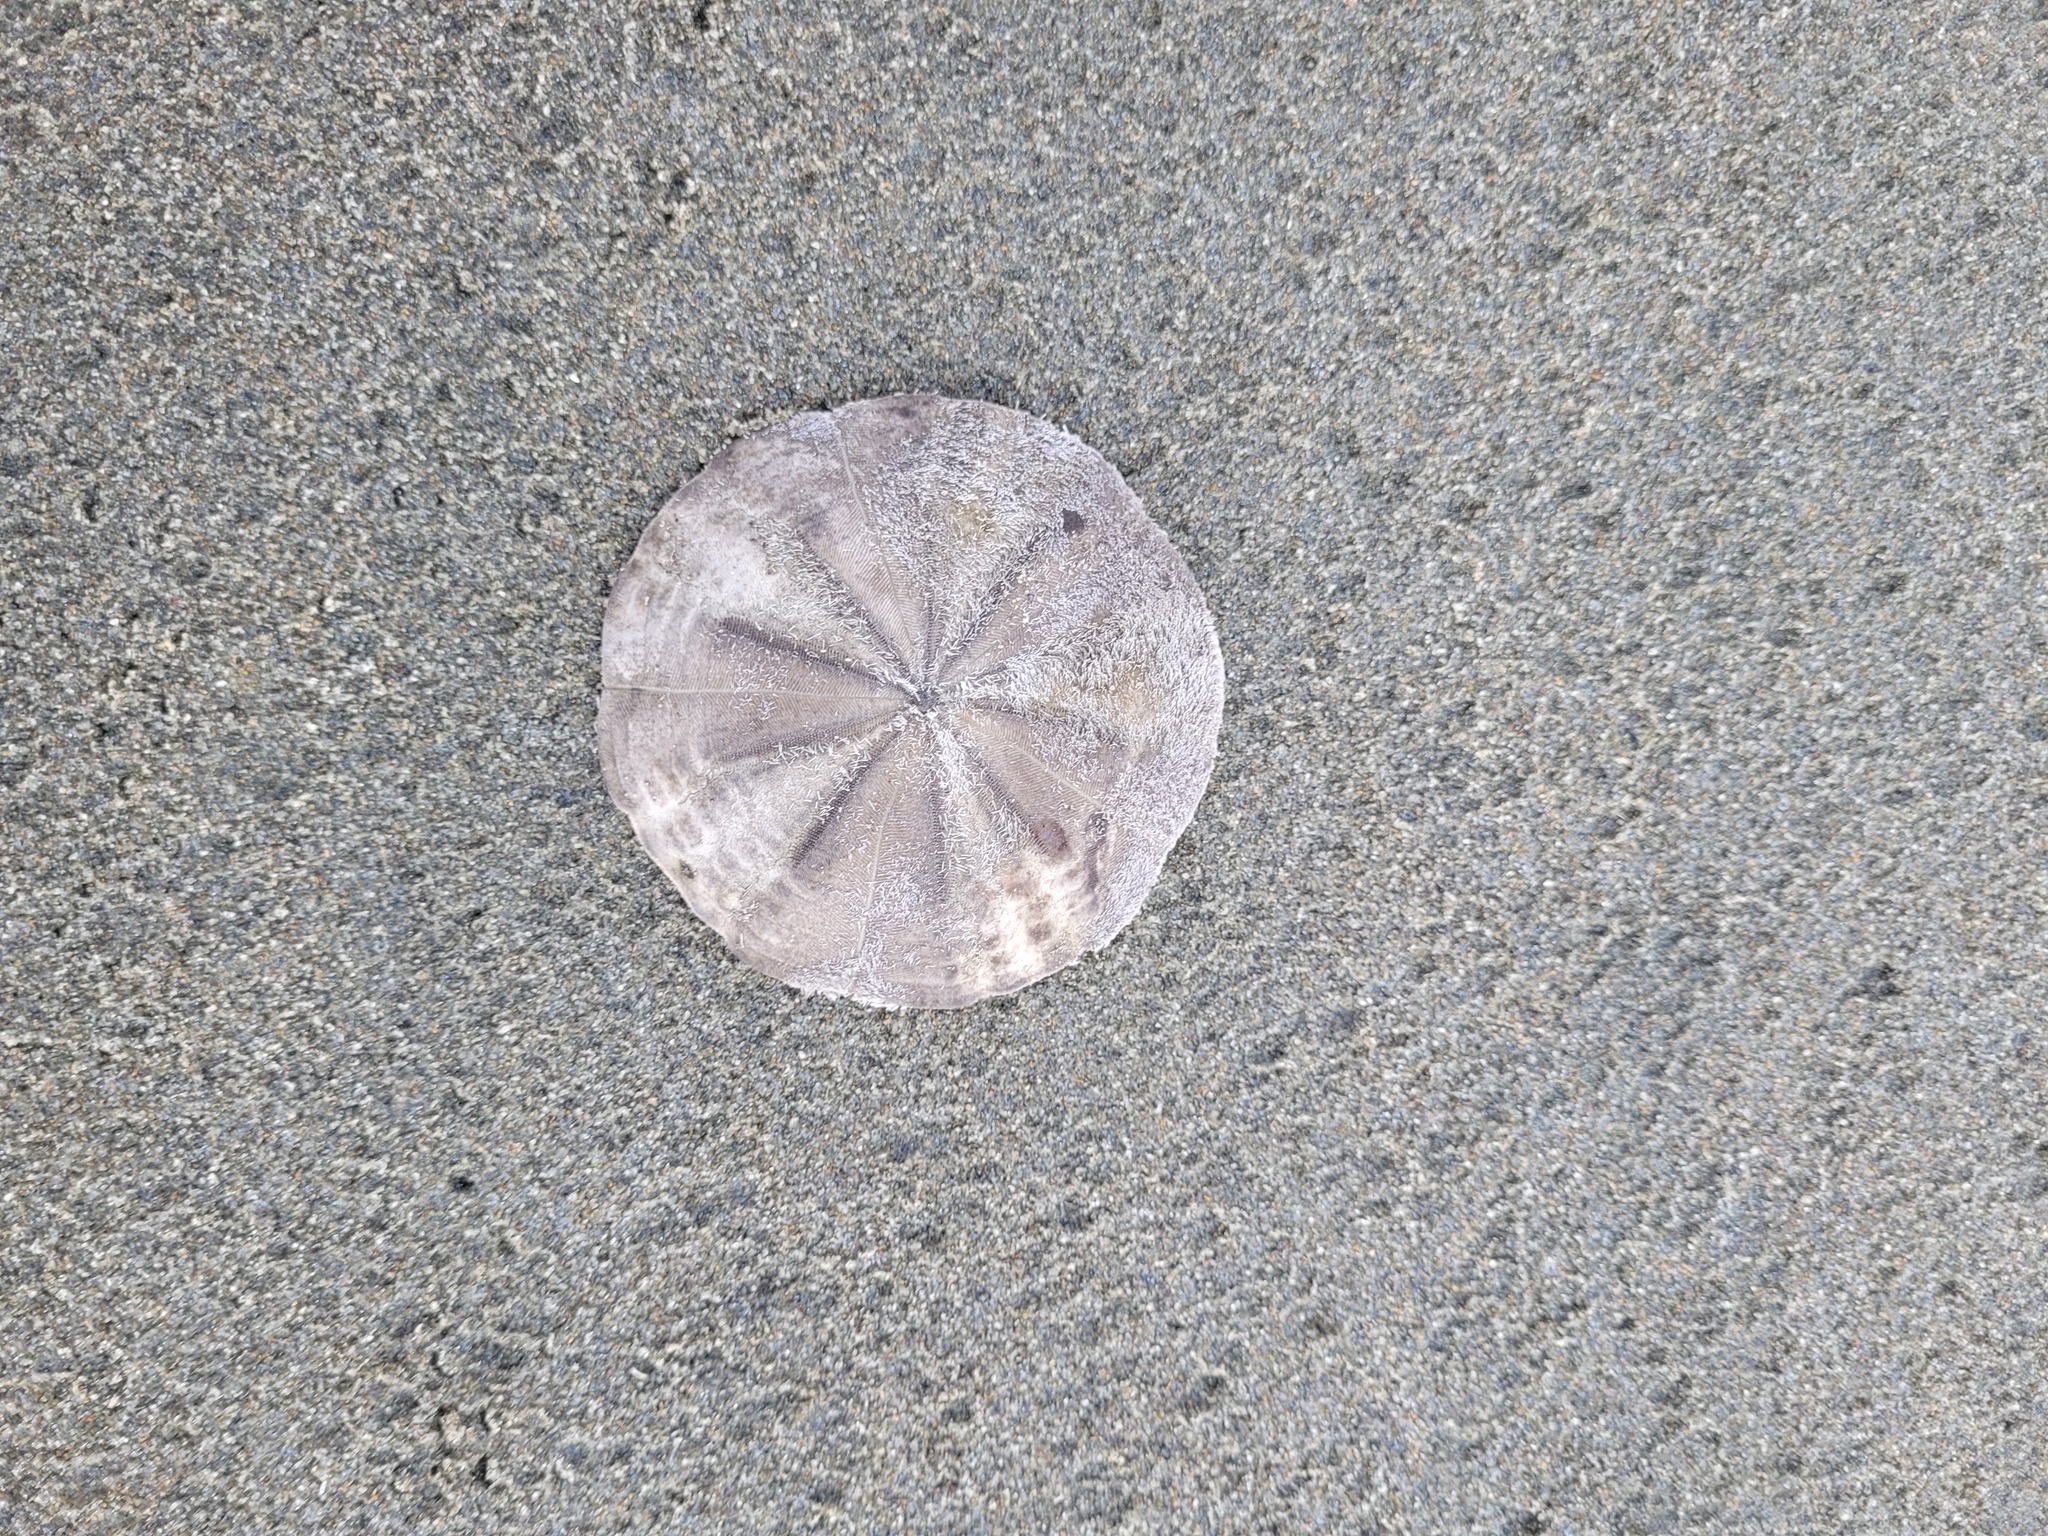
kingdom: Animalia
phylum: Echinodermata
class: Echinoidea
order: Clypeasteroida
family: Clypeasteridae
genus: Fellaster
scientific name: Fellaster zelandiae
